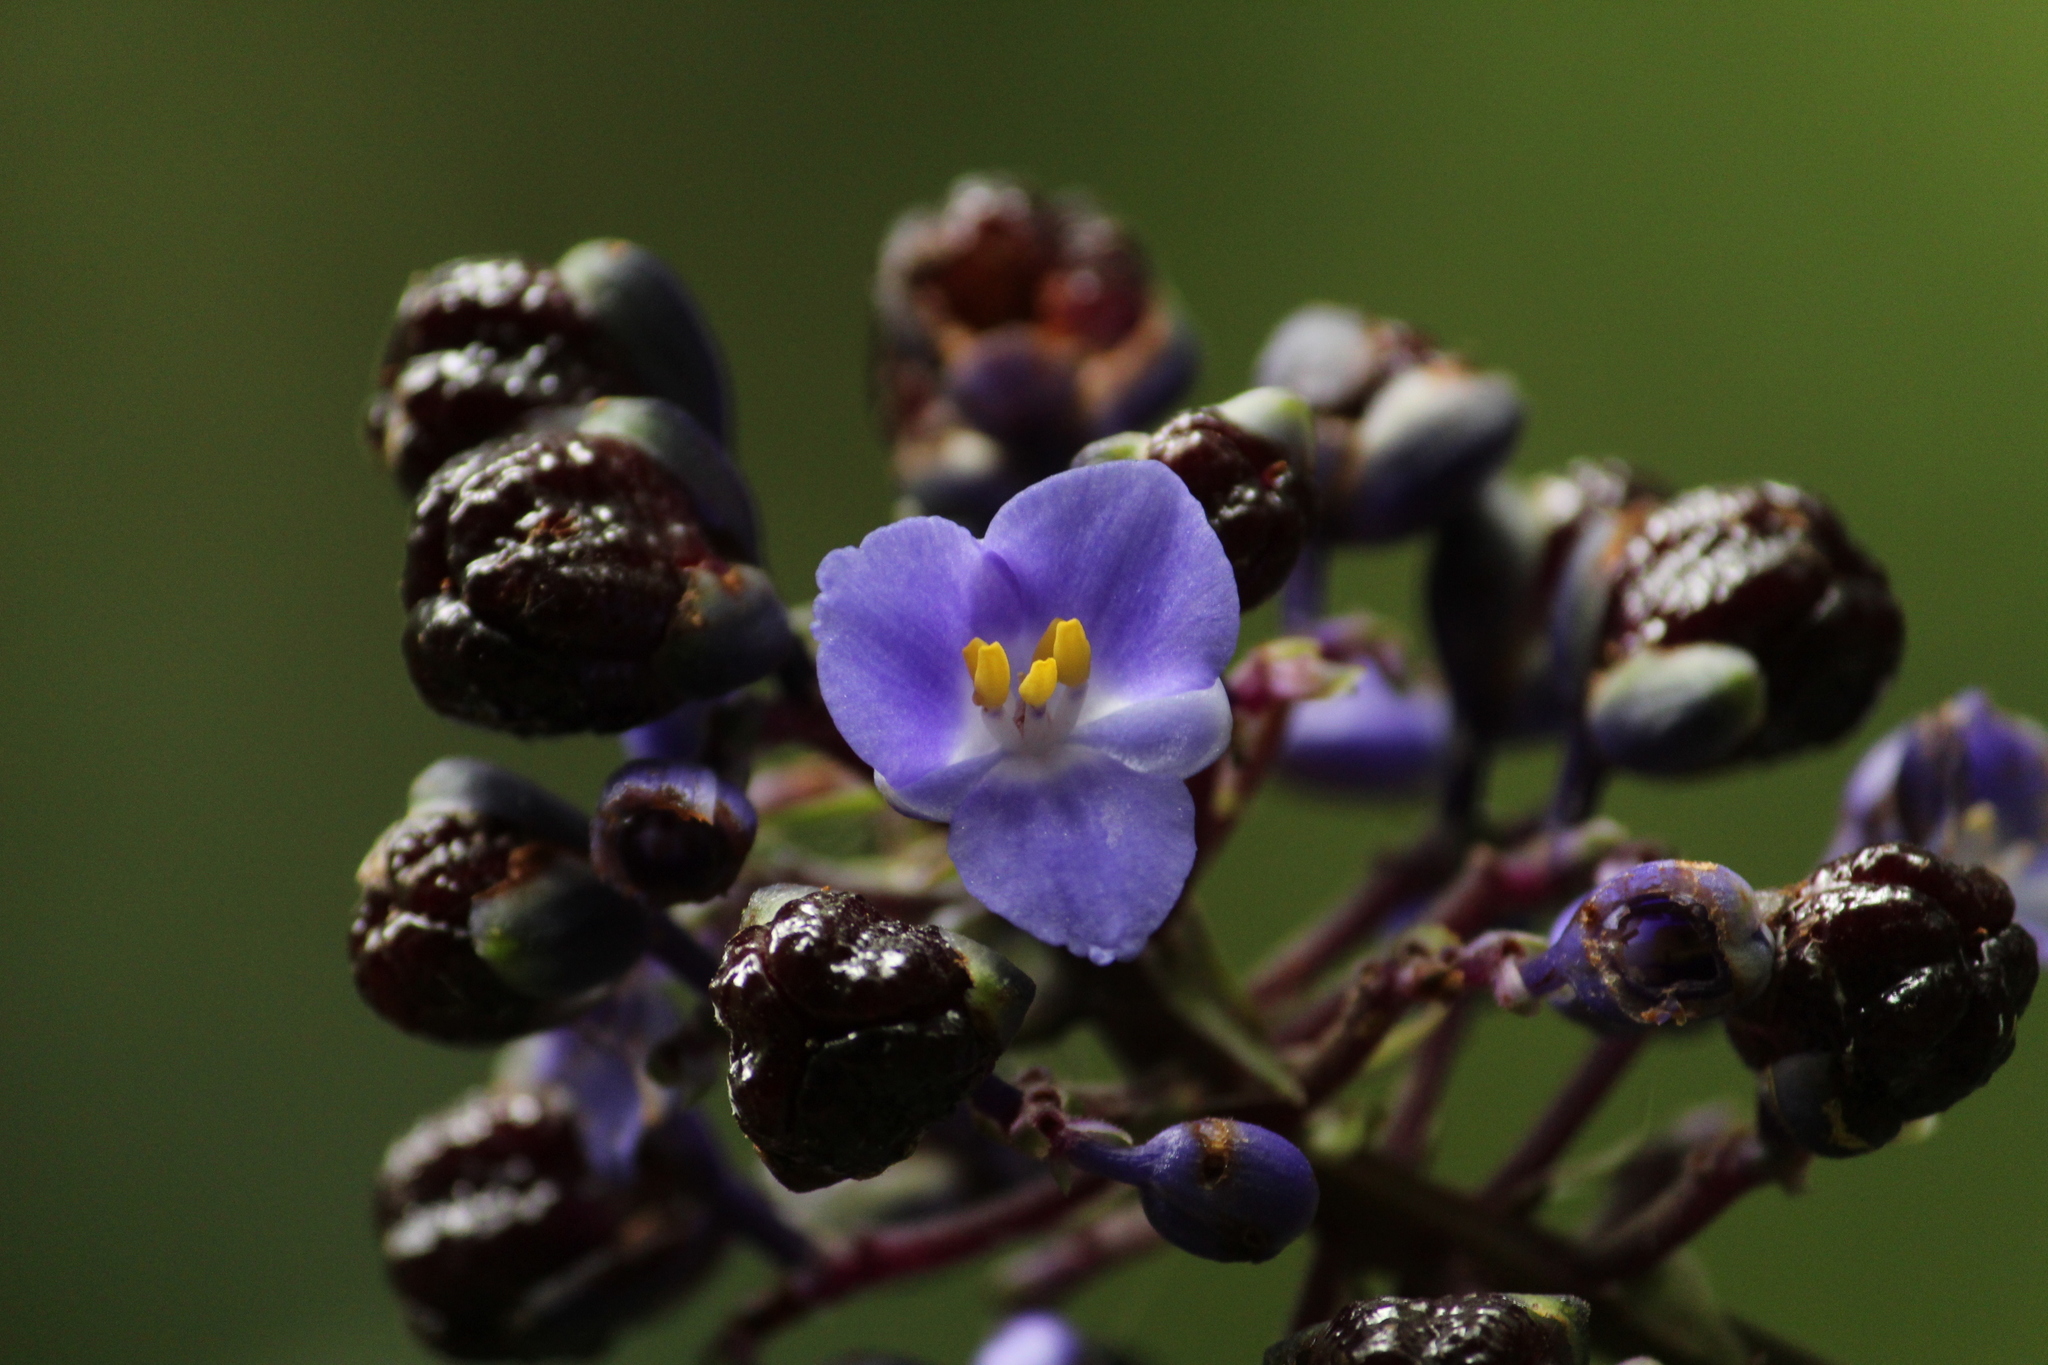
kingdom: Plantae
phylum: Tracheophyta
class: Liliopsida
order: Commelinales
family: Commelinaceae
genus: Dichorisandra
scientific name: Dichorisandra paranaensis
